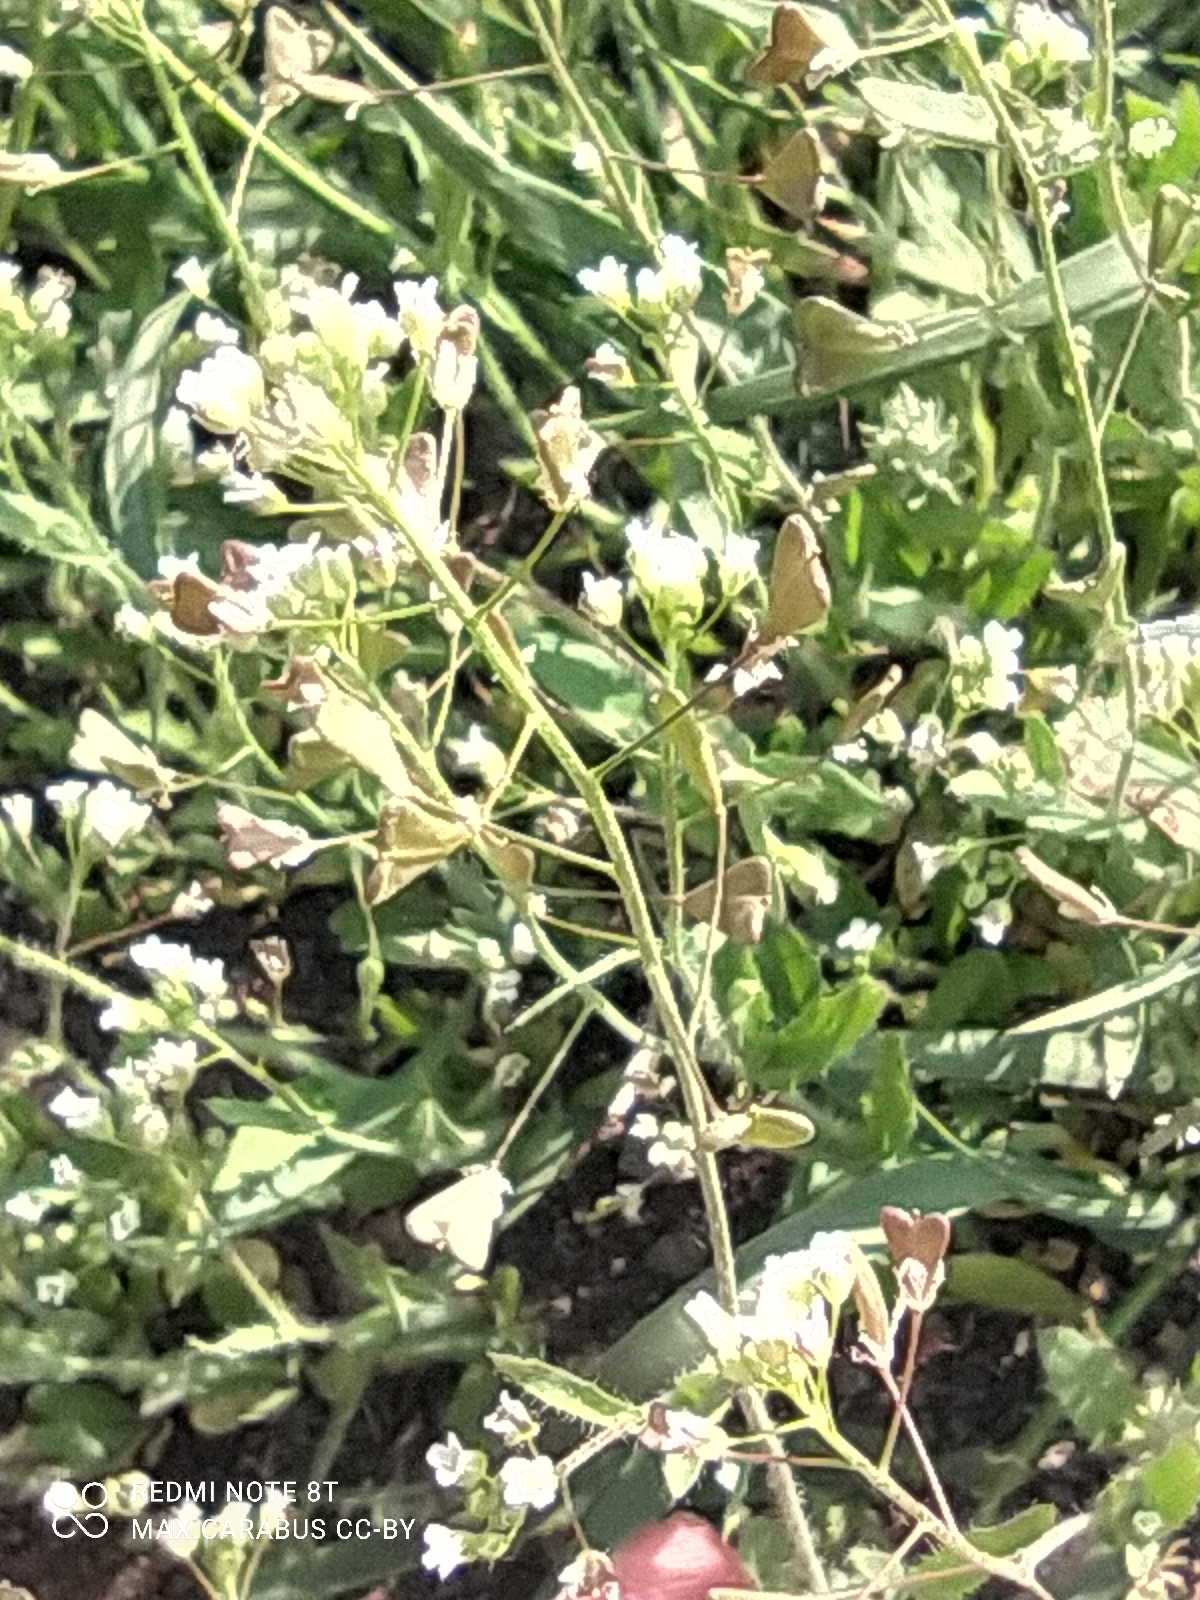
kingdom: Plantae
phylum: Tracheophyta
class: Magnoliopsida
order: Brassicales
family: Brassicaceae
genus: Capsella
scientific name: Capsella bursa-pastoris
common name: Shepherd's purse
